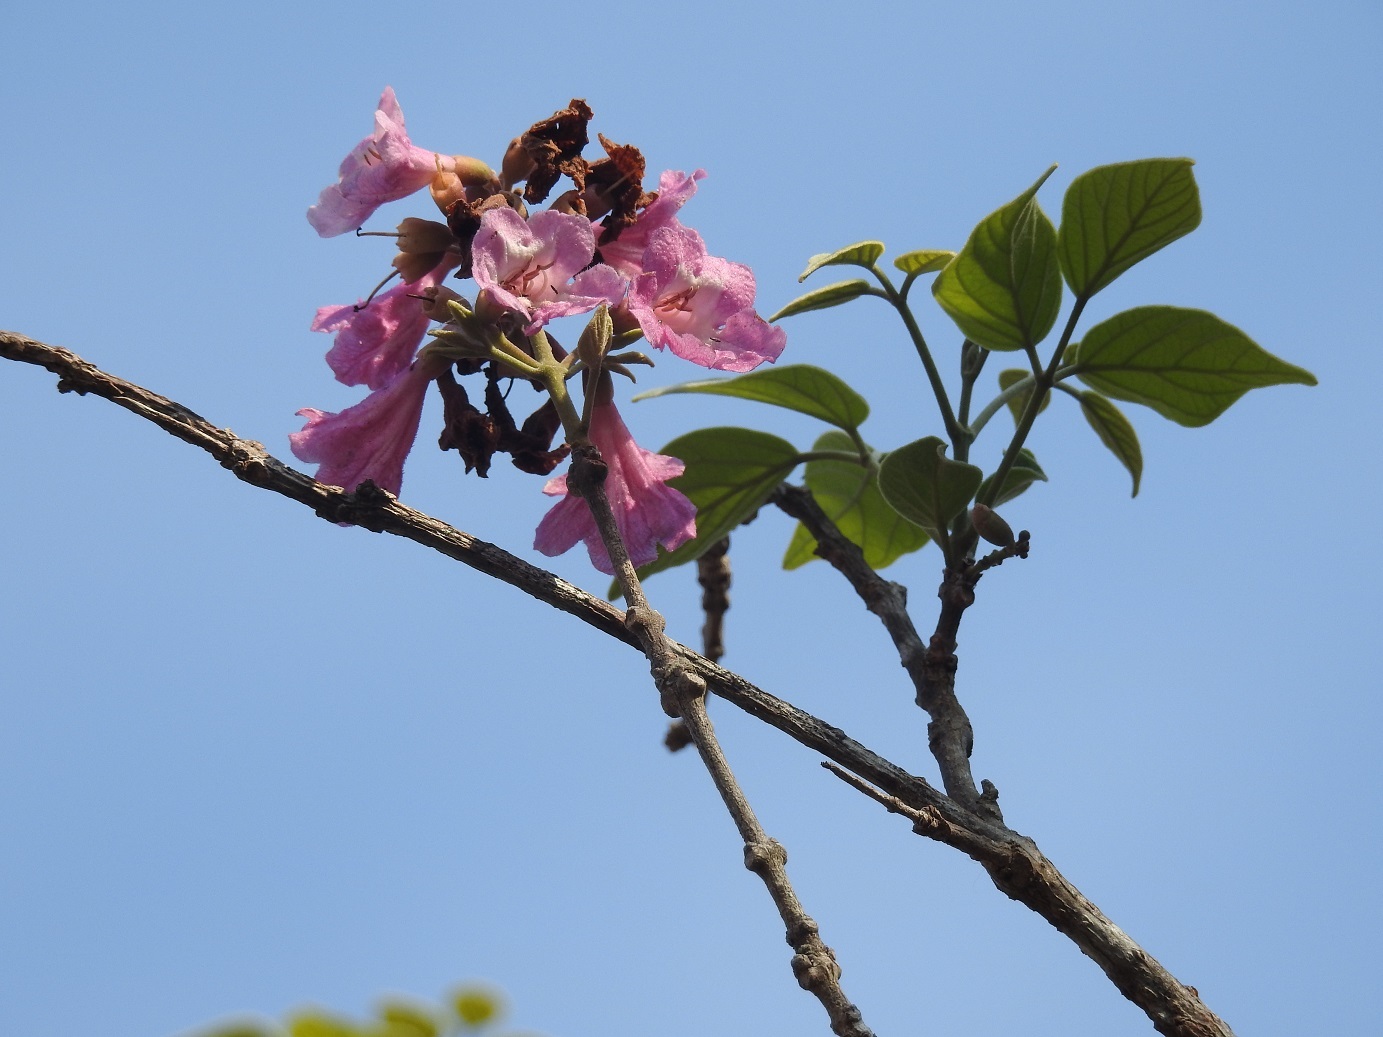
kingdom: Plantae
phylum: Tracheophyta
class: Magnoliopsida
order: Lamiales
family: Bignoniaceae
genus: Handroanthus
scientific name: Handroanthus impetiginosum
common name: Pink trumpet tree
